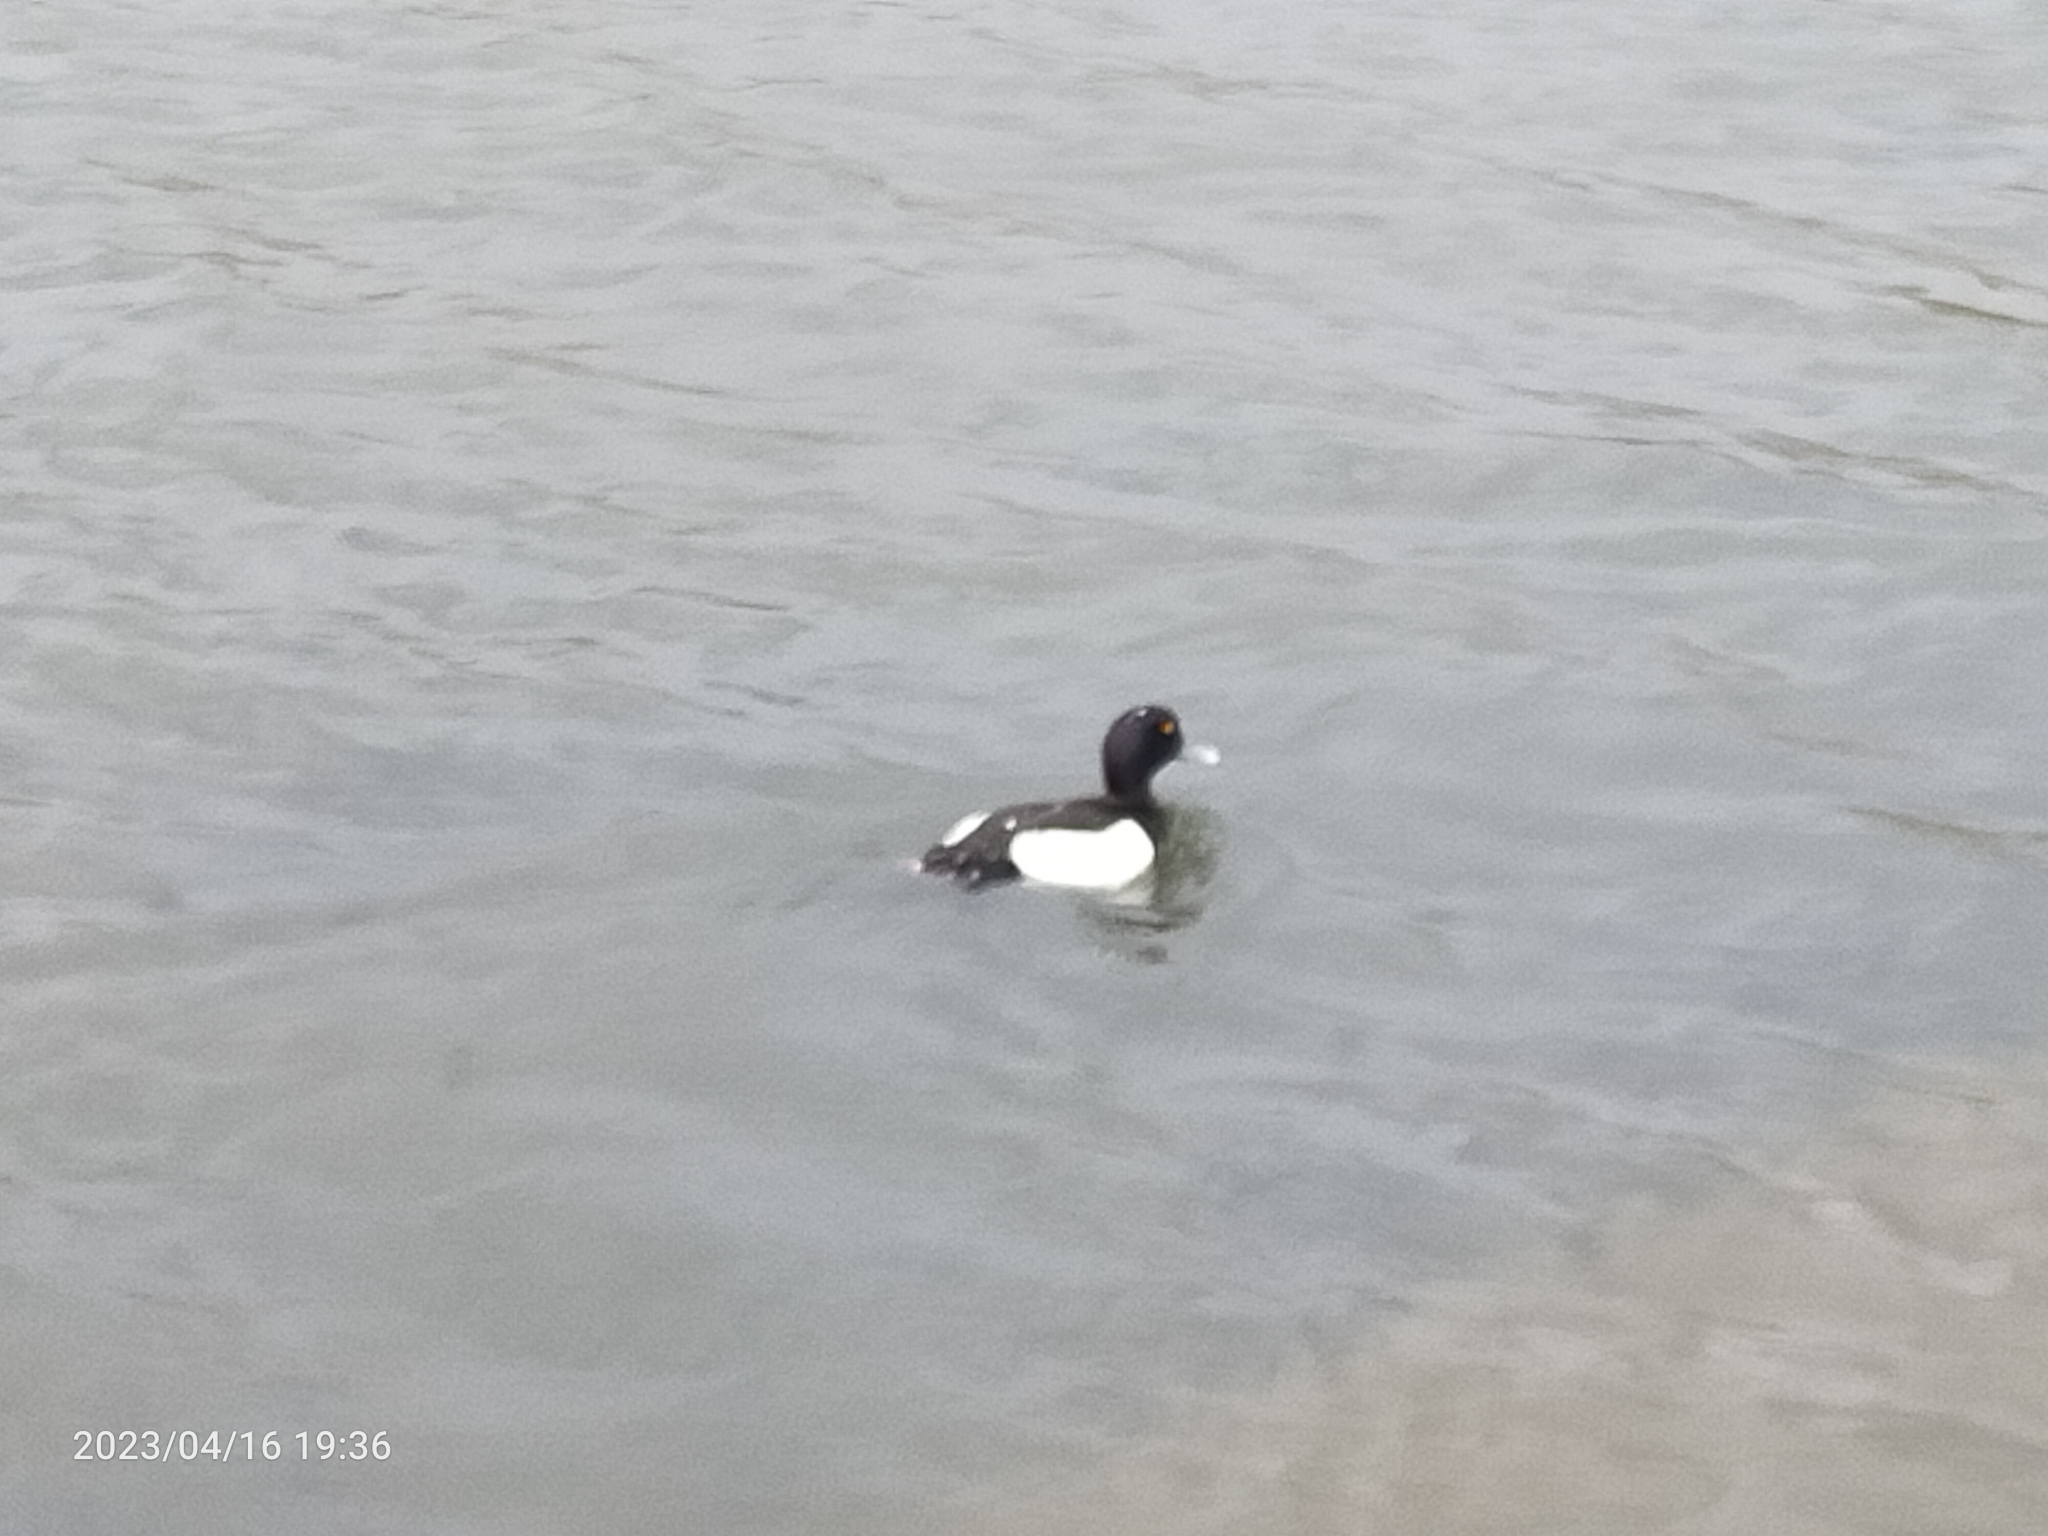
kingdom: Animalia
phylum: Chordata
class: Aves
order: Anseriformes
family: Anatidae
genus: Aythya
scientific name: Aythya fuligula
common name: Tufted duck
